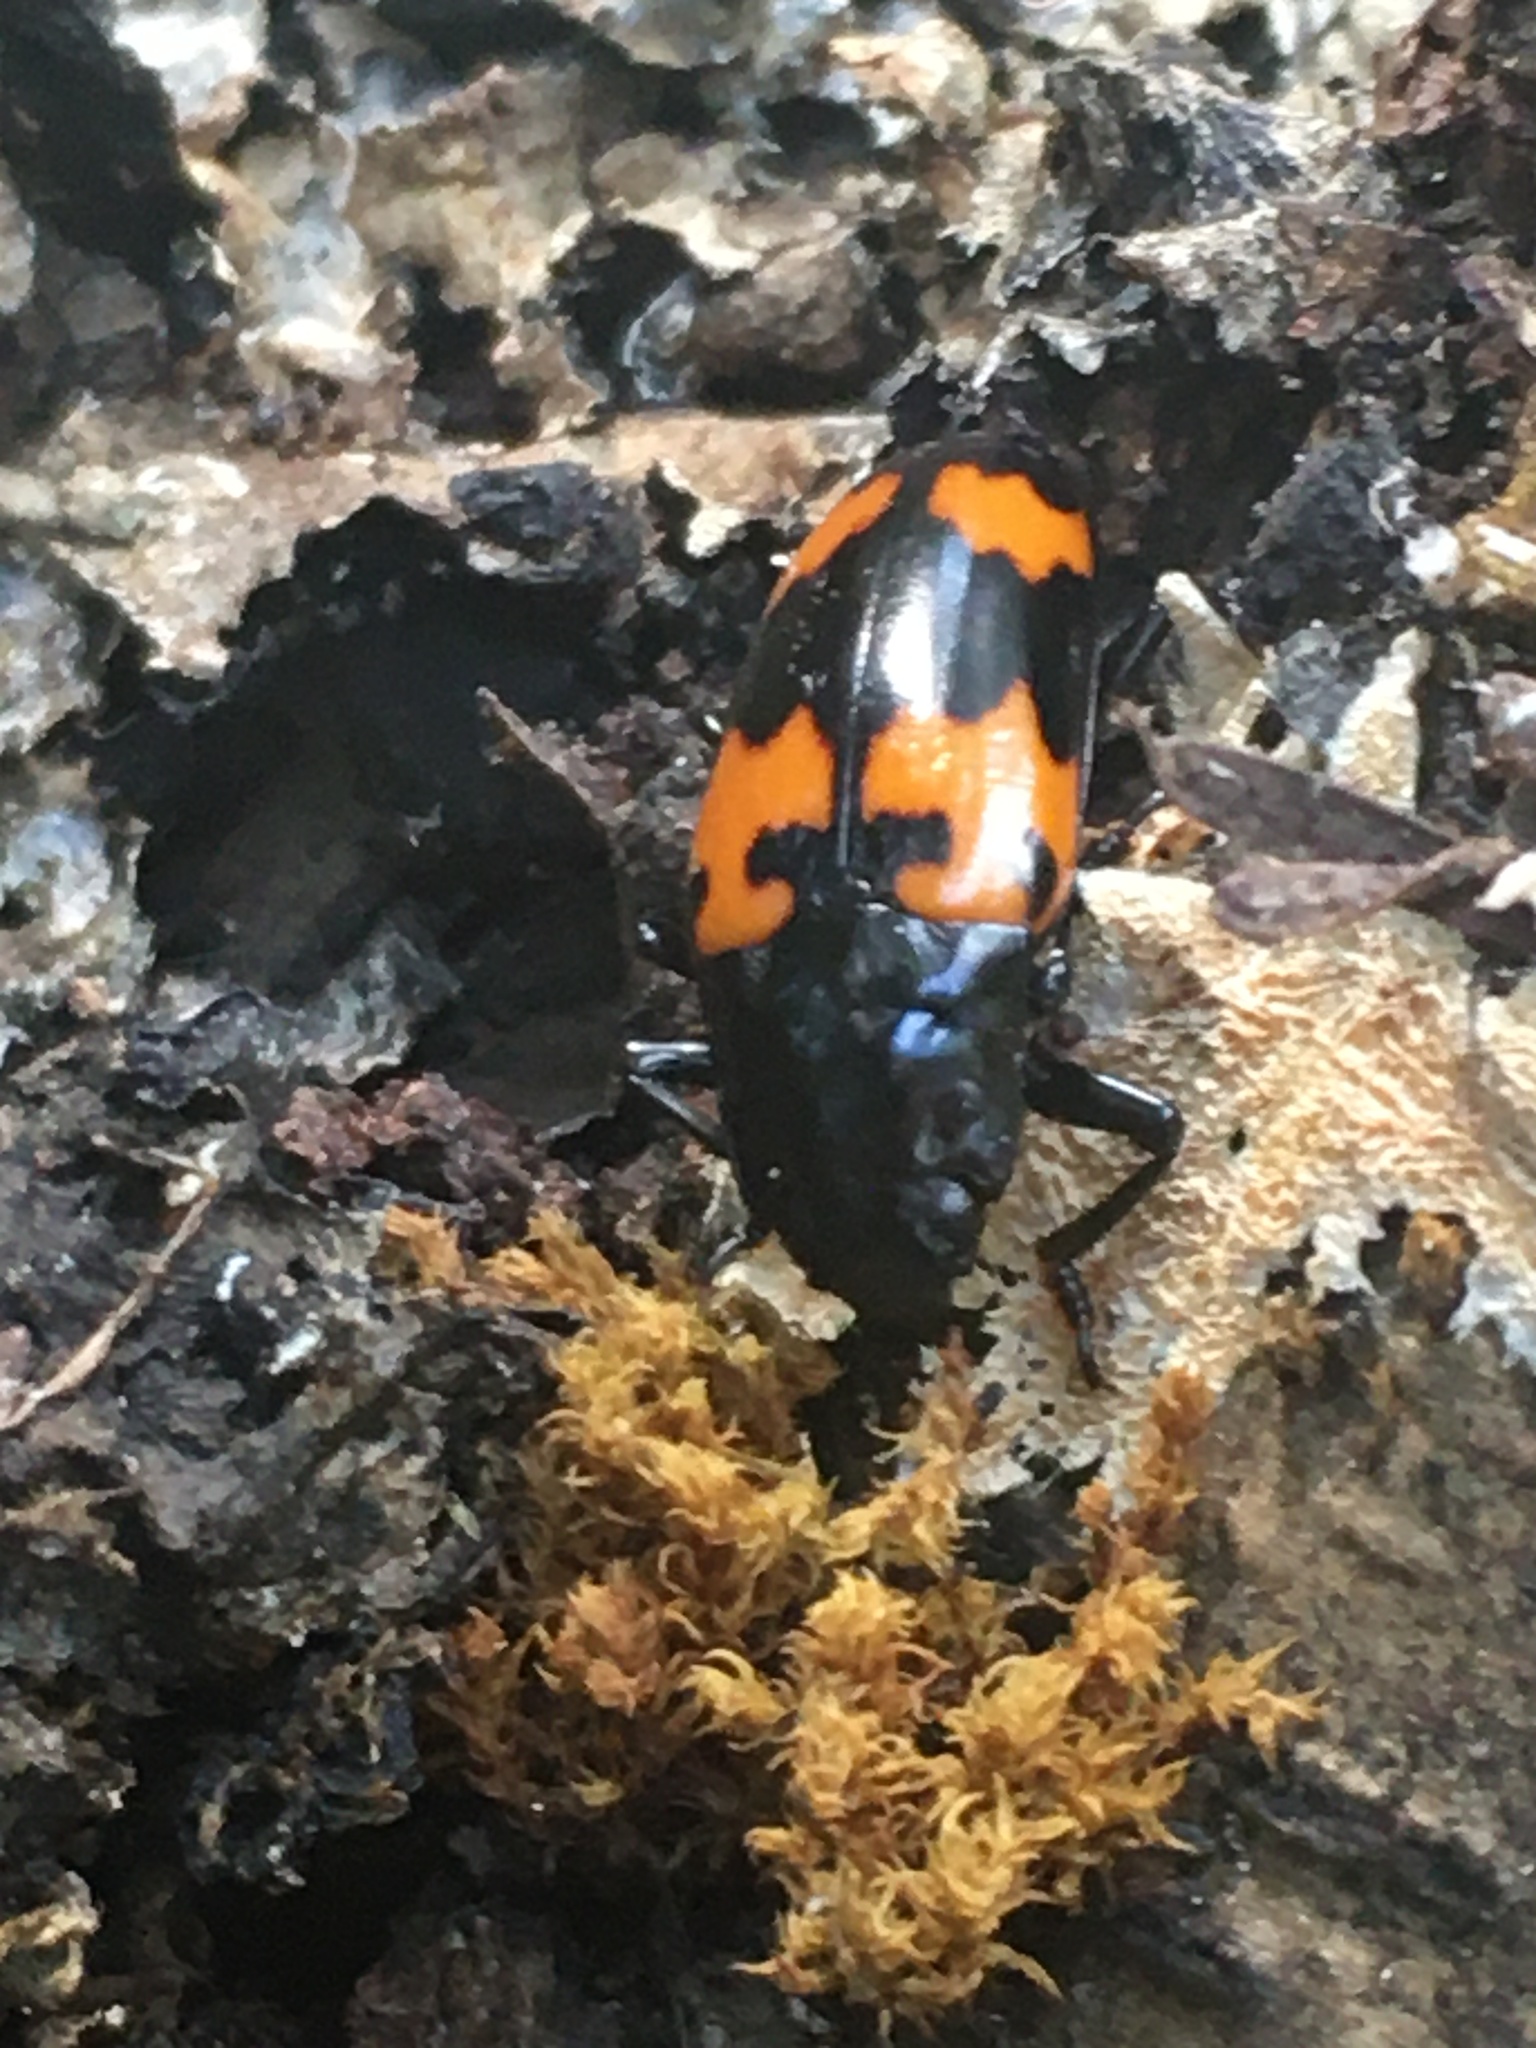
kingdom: Animalia
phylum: Arthropoda
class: Insecta
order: Coleoptera
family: Erotylidae
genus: Megalodacne
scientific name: Megalodacne heros
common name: Pleasing fungus beetle
